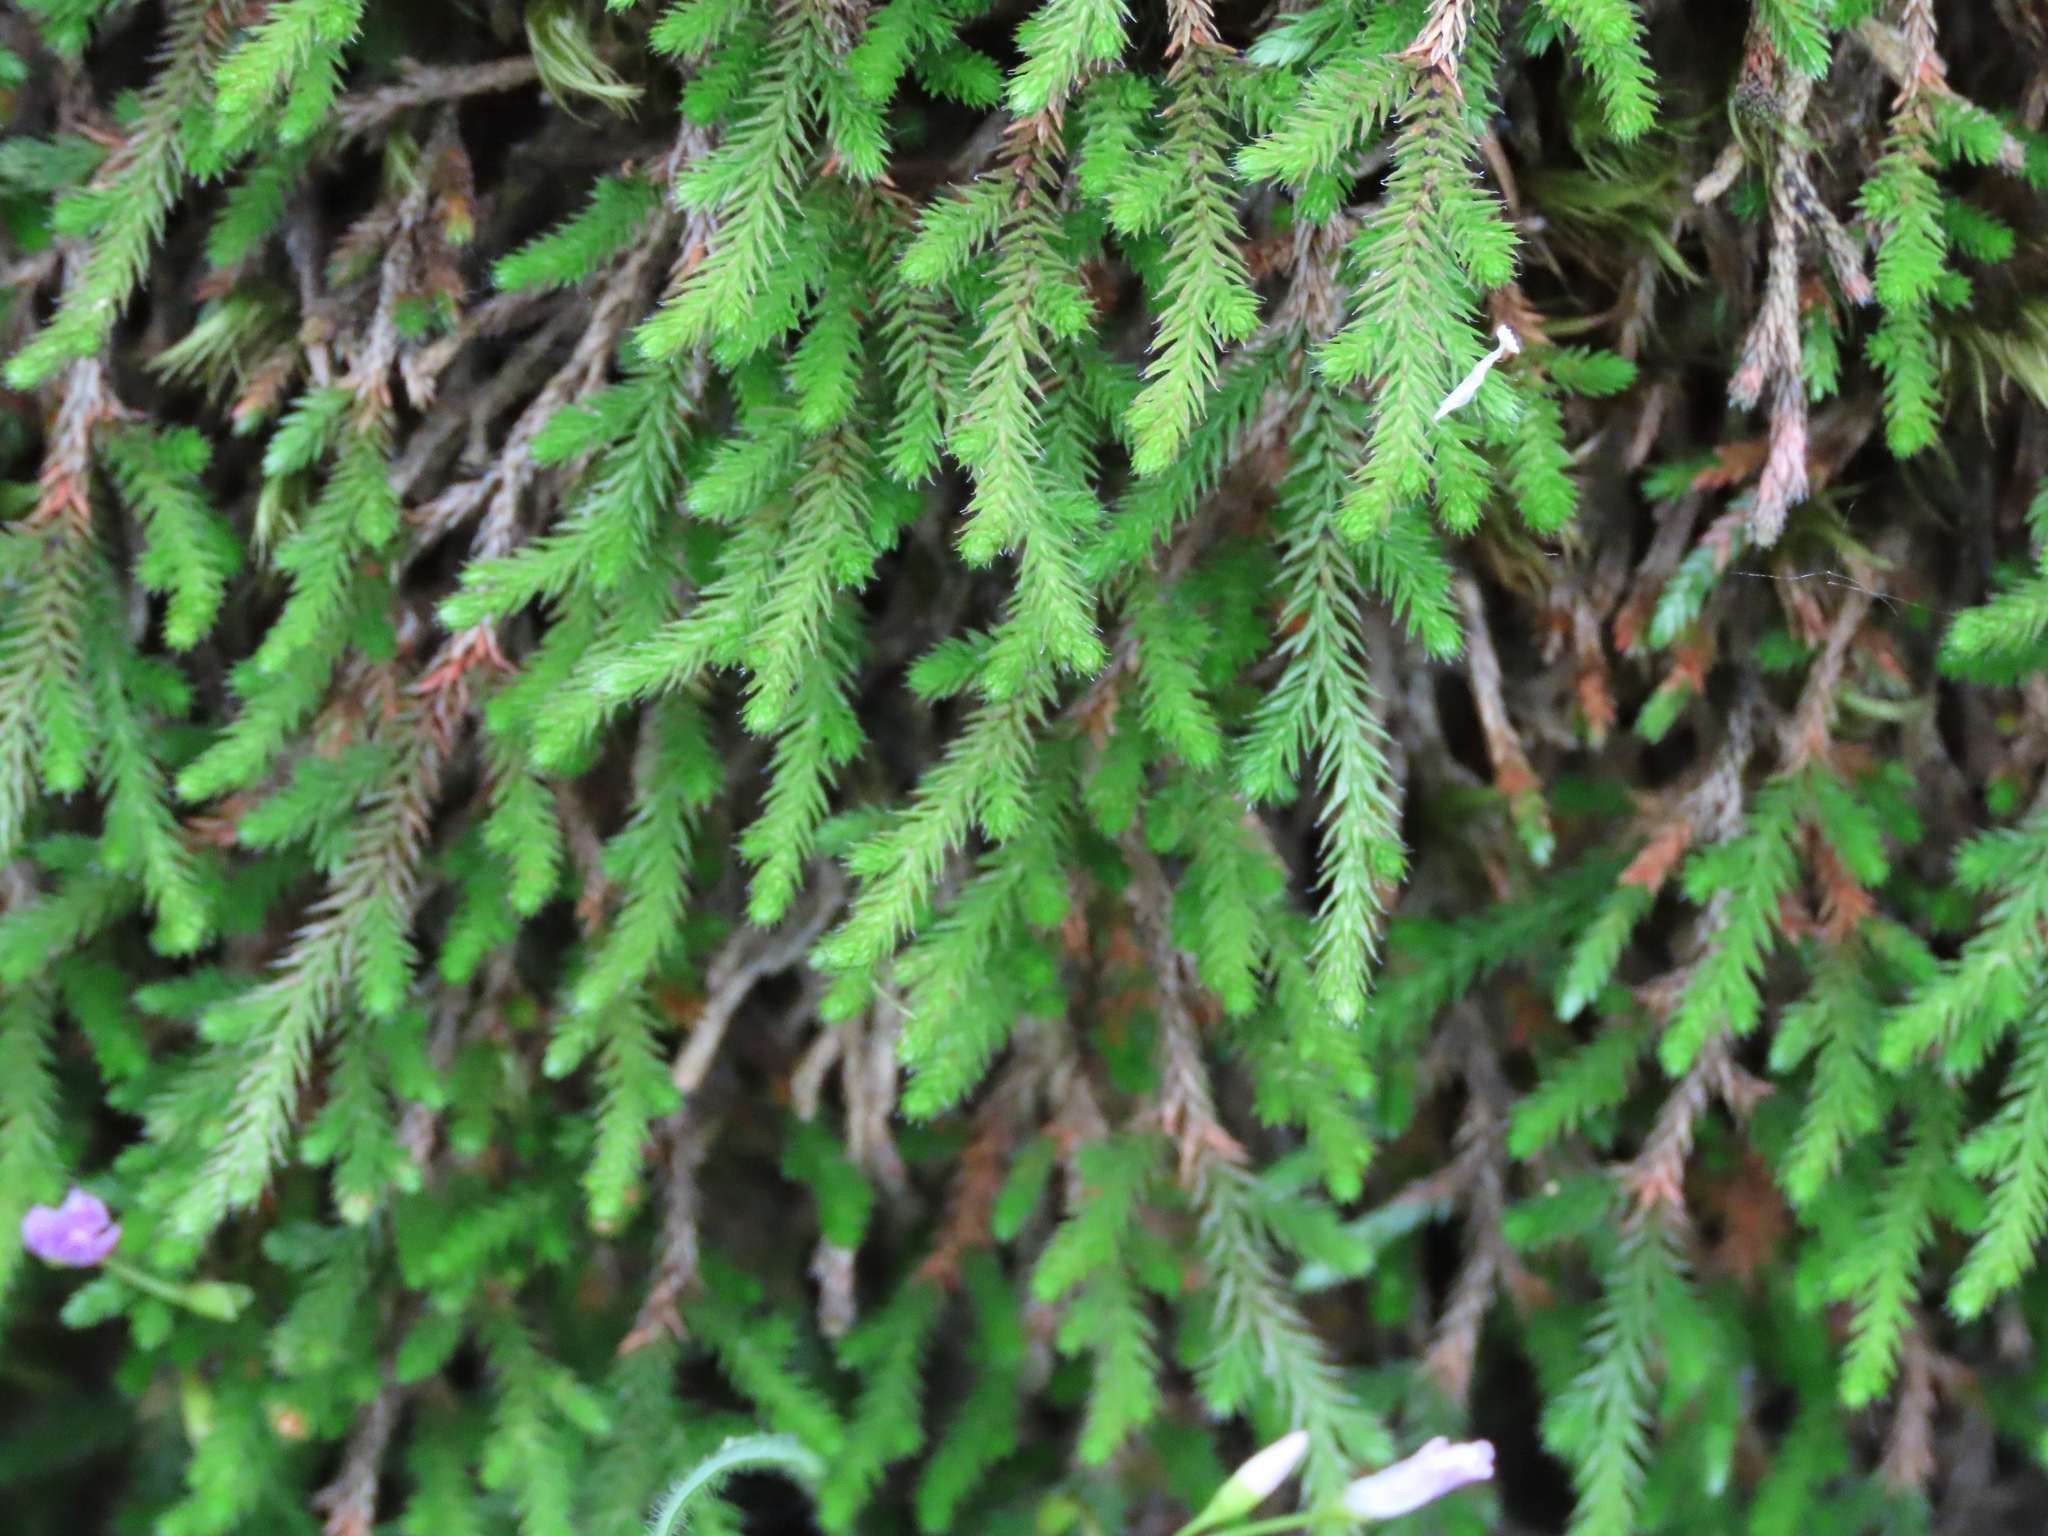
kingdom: Plantae
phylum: Tracheophyta
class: Lycopodiopsida
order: Selaginellales
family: Selaginellaceae
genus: Selaginella
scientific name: Selaginella wallacei
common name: Wallace's selaginella
